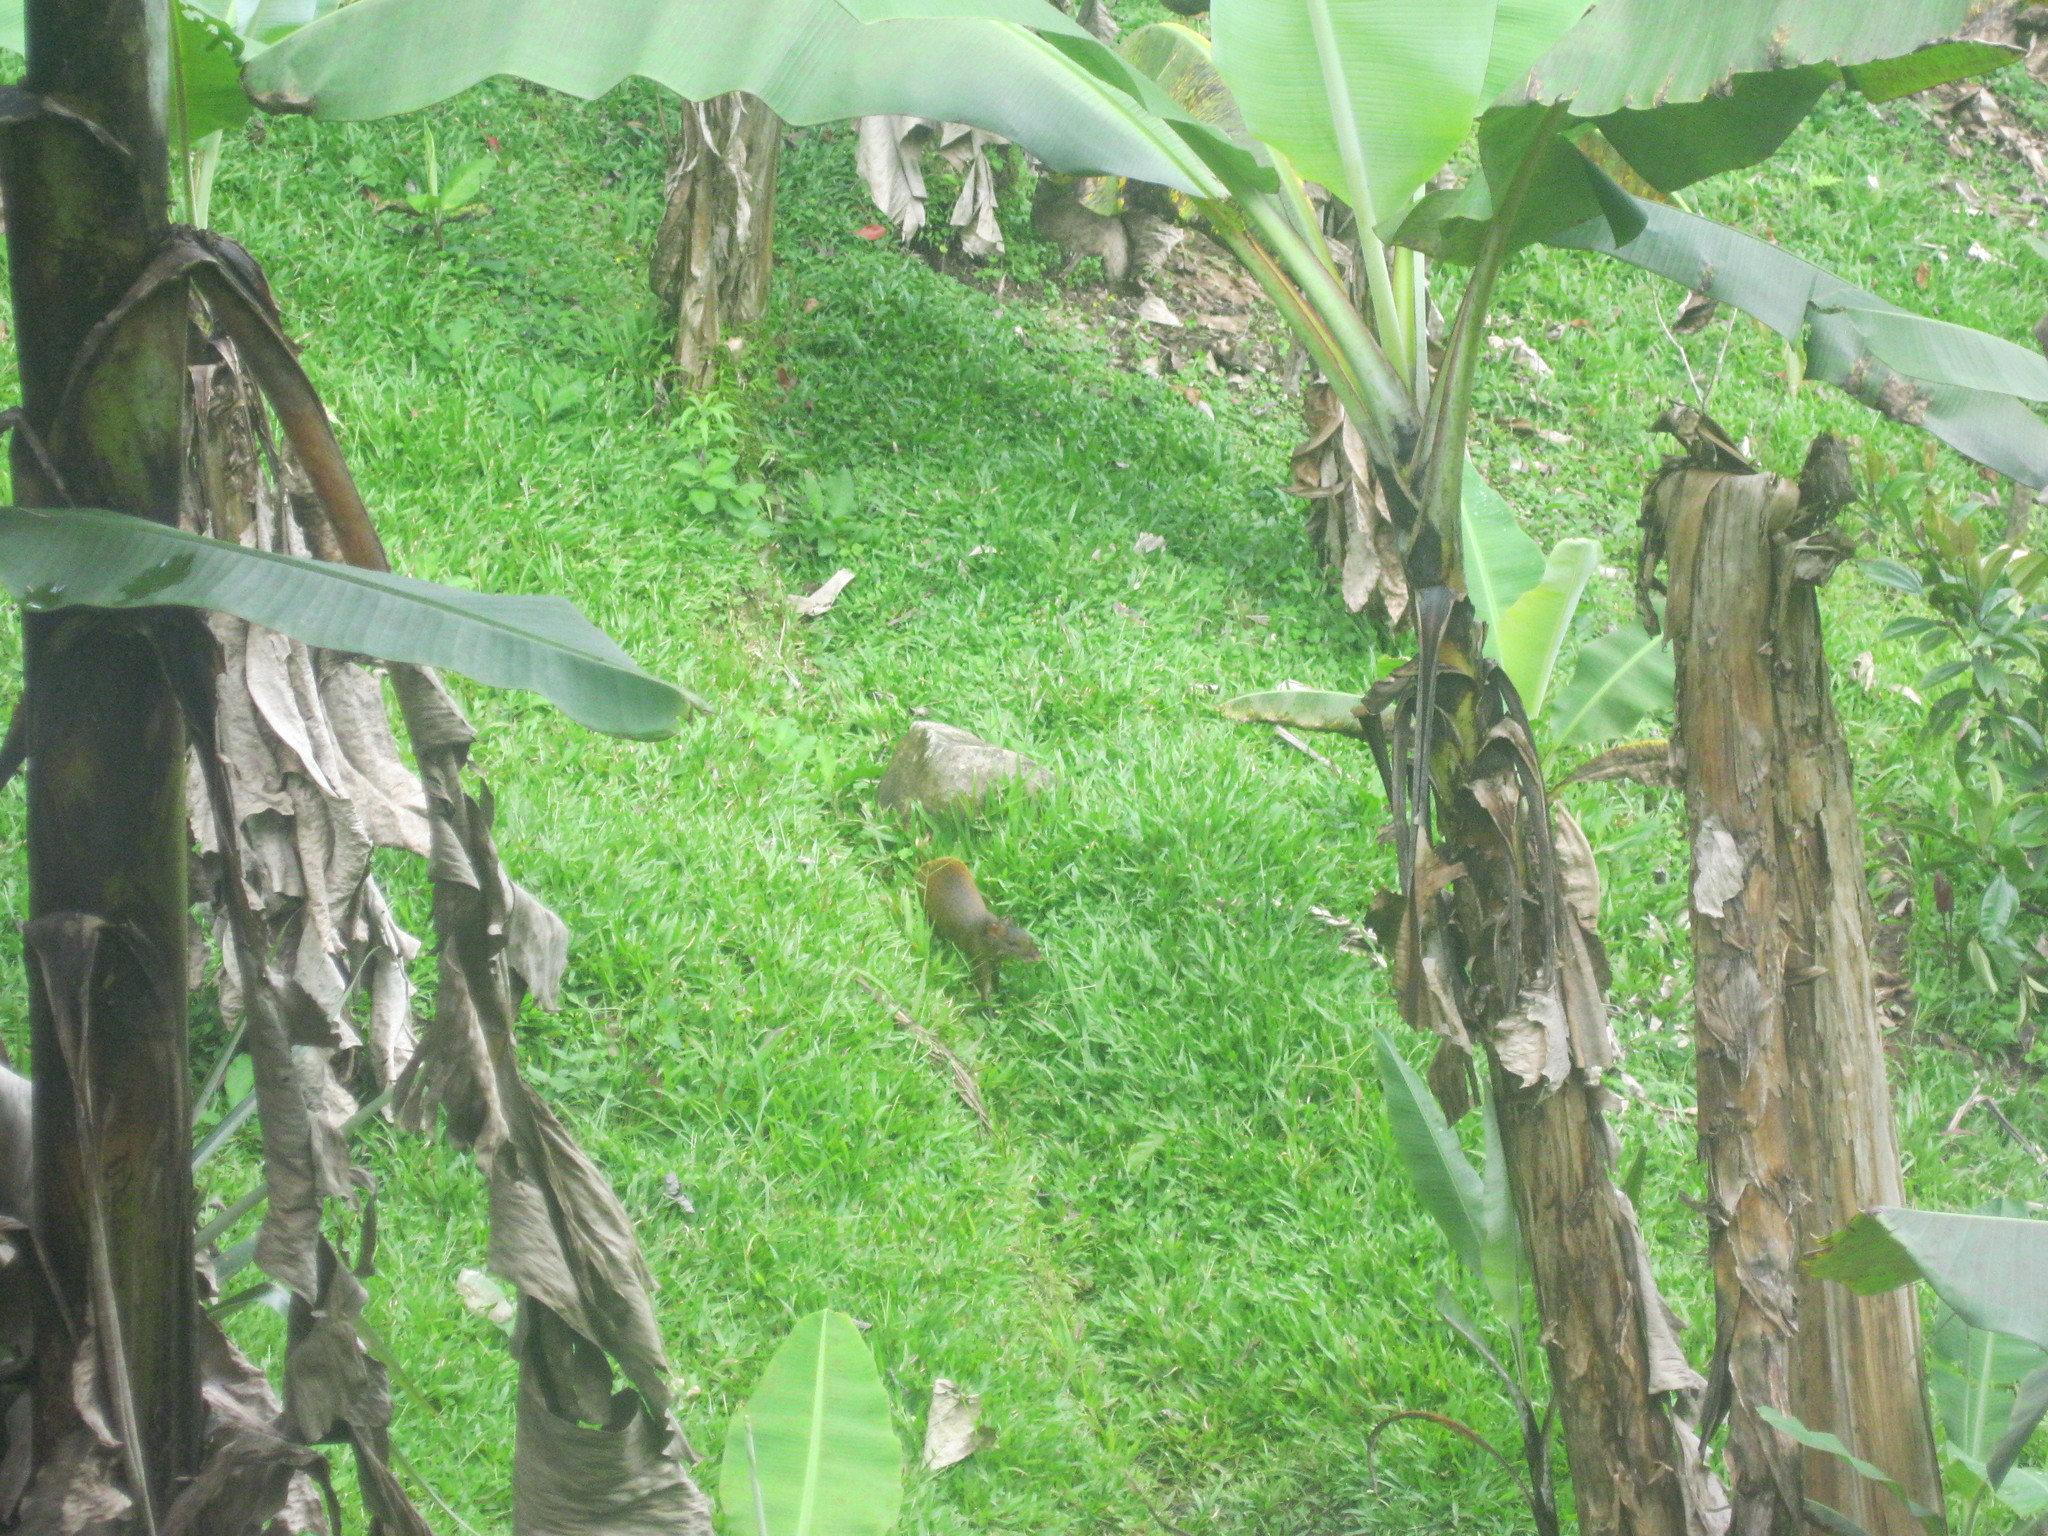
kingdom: Animalia
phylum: Chordata
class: Mammalia
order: Rodentia
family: Dasyproctidae
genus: Dasyprocta
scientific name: Dasyprocta punctata
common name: Central american agouti
